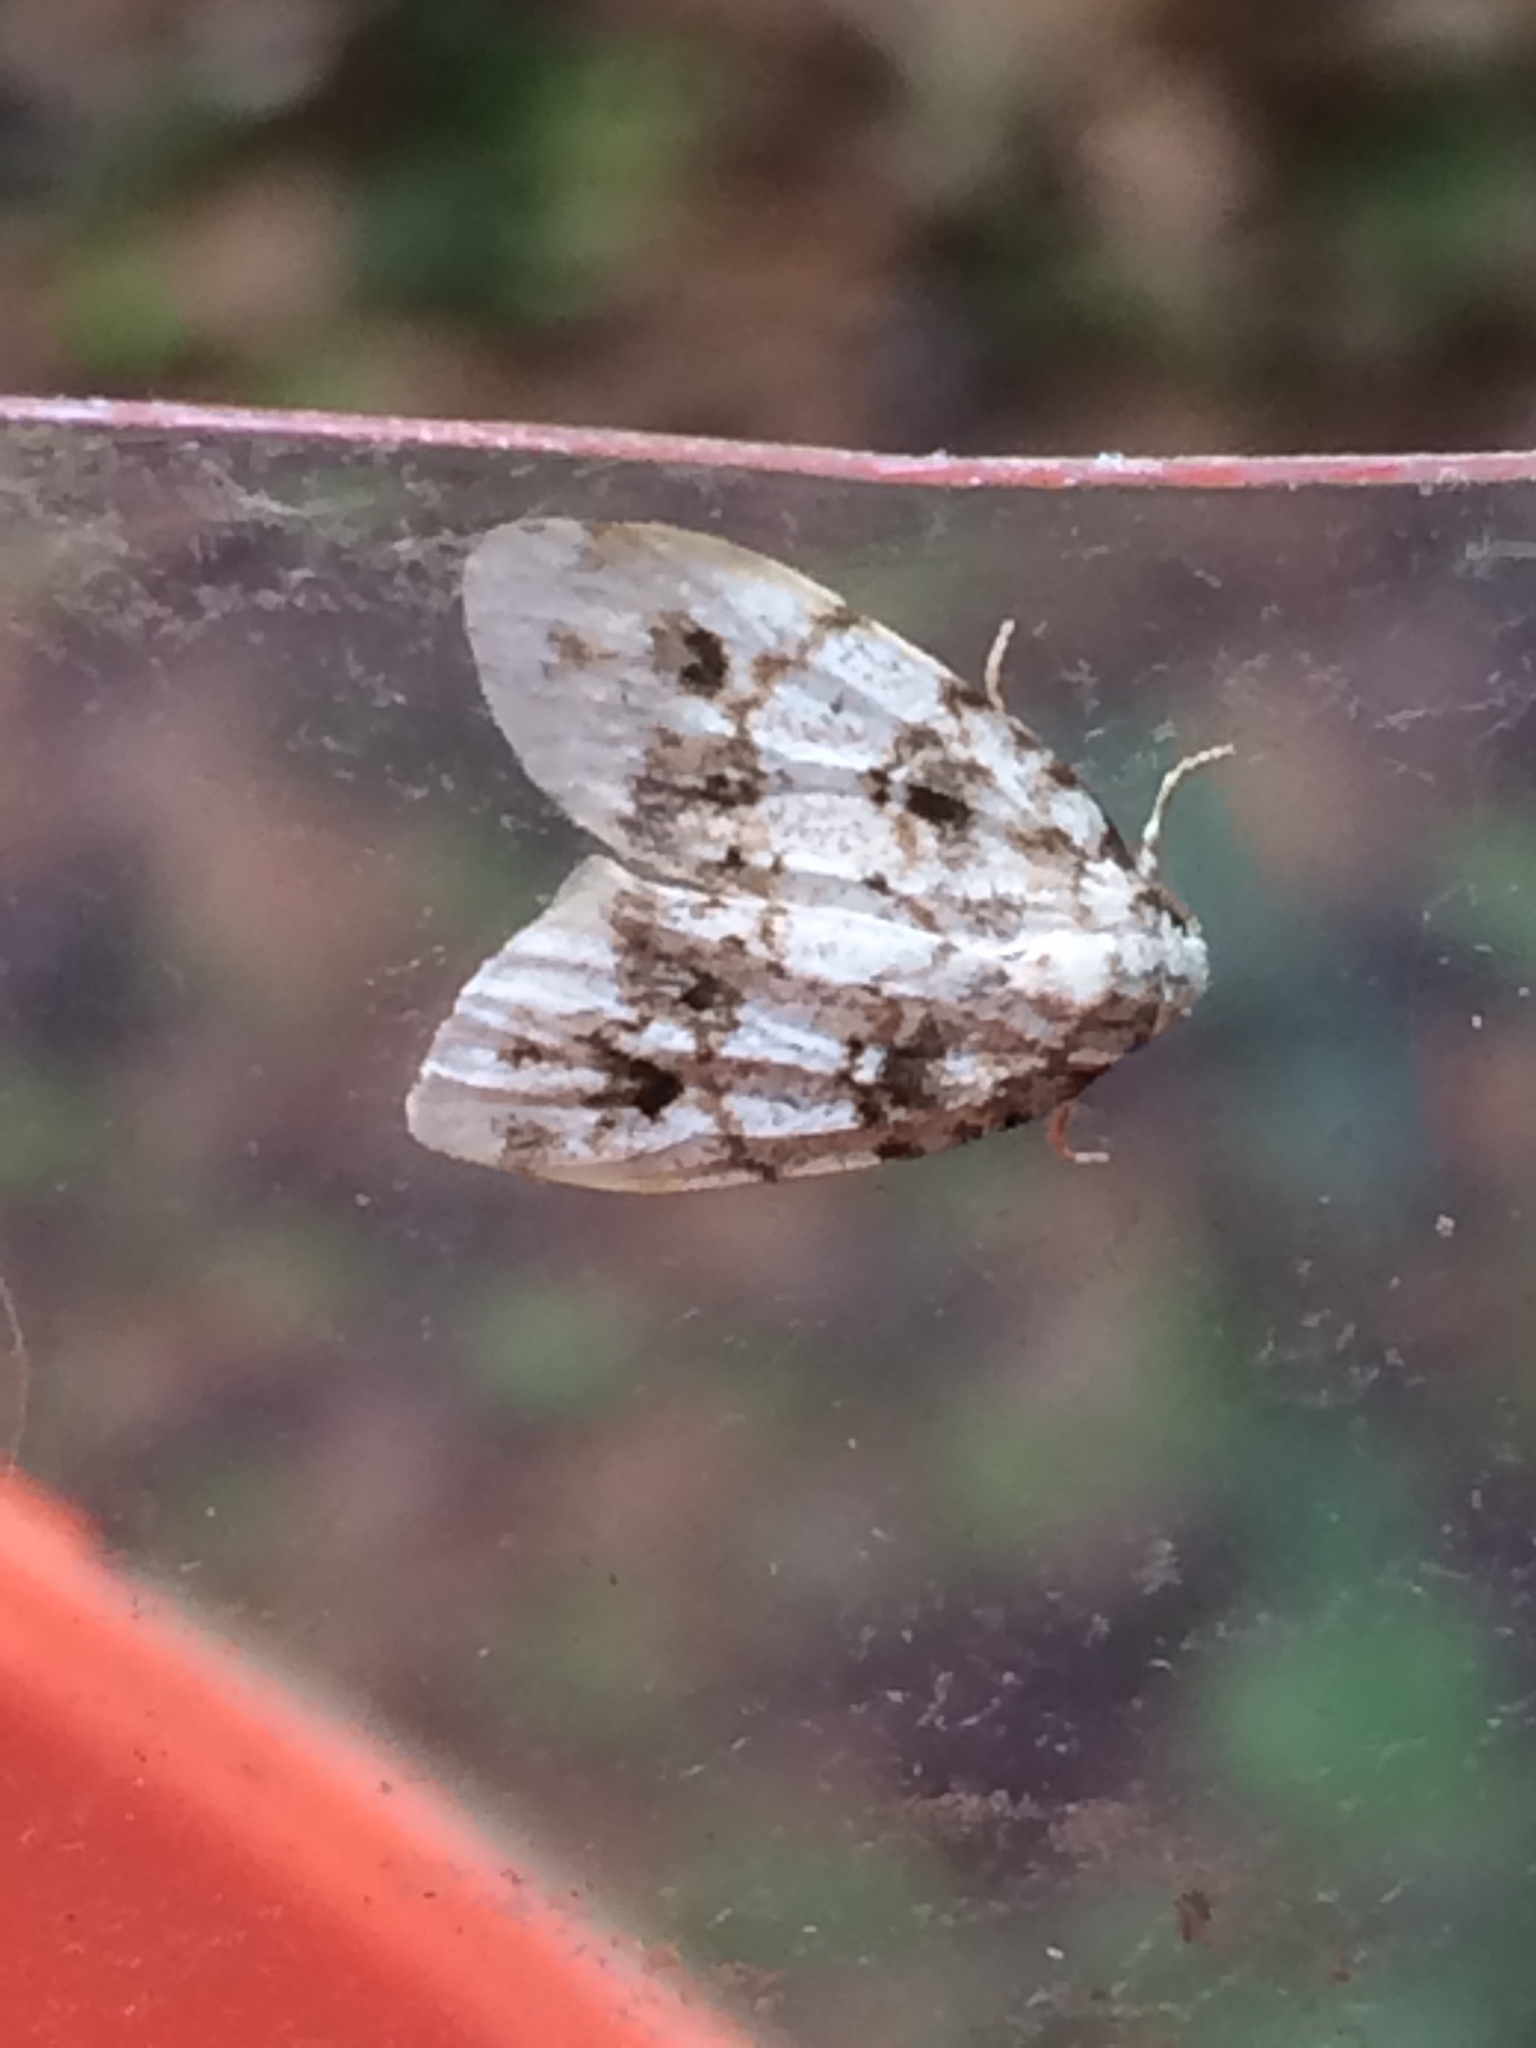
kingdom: Animalia
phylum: Arthropoda
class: Insecta
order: Lepidoptera
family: Erebidae
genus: Clemensia
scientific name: Clemensia ochreata
